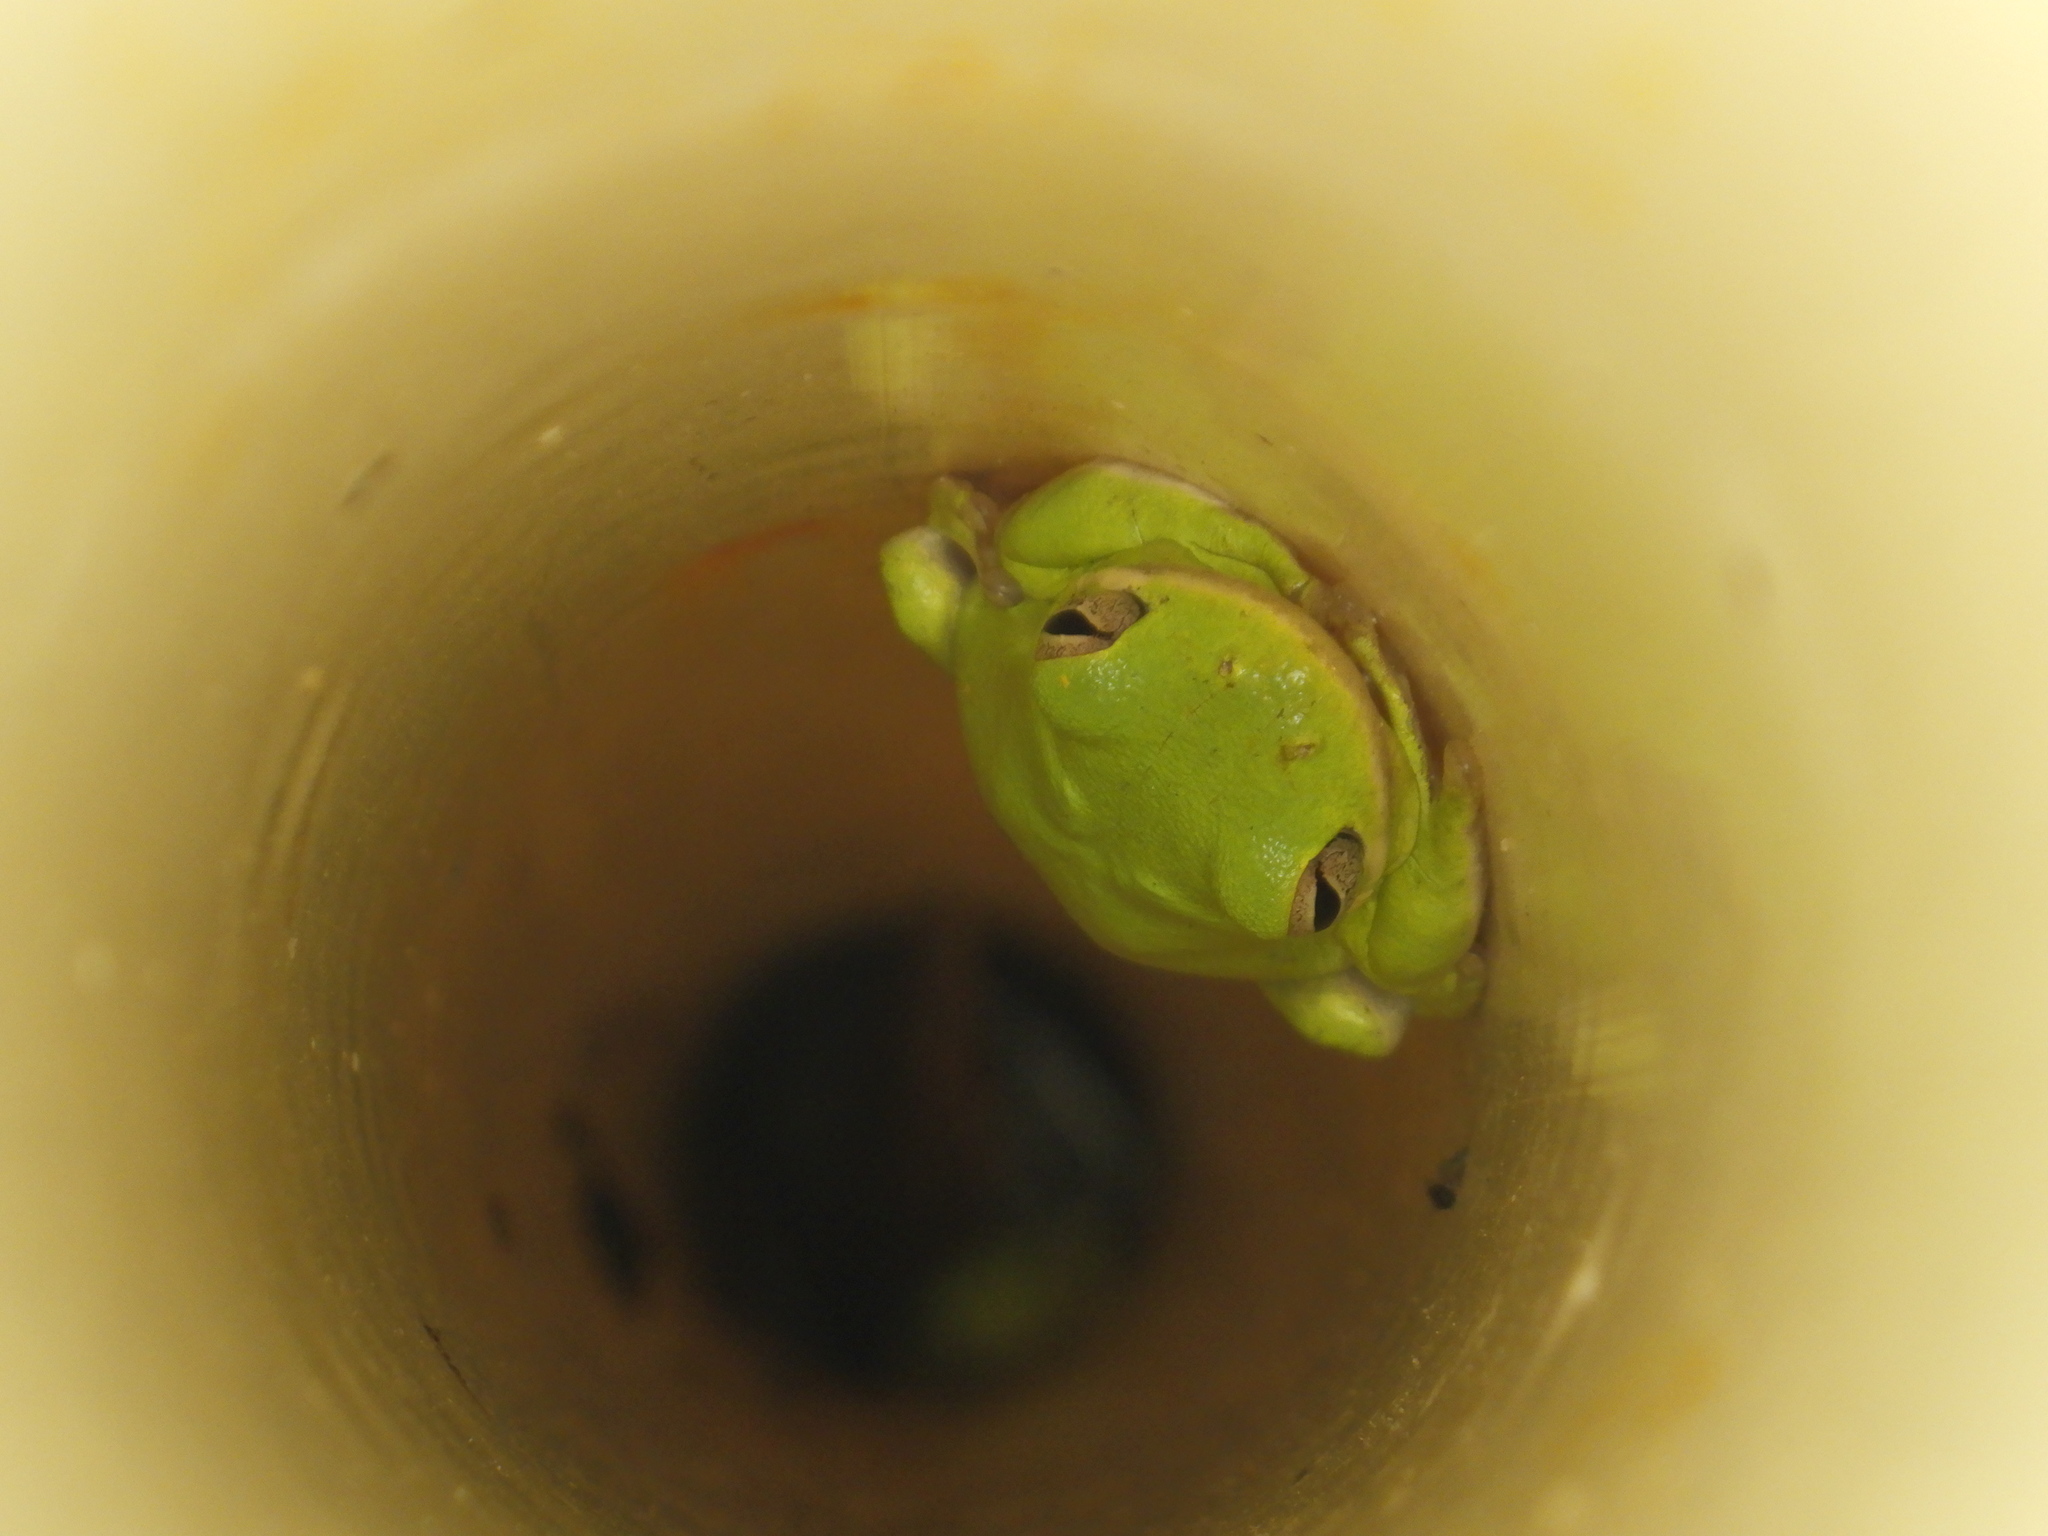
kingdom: Animalia
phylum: Chordata
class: Amphibia
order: Anura
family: Hylidae
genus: Dryophytes
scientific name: Dryophytes cinereus
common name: Green treefrog
